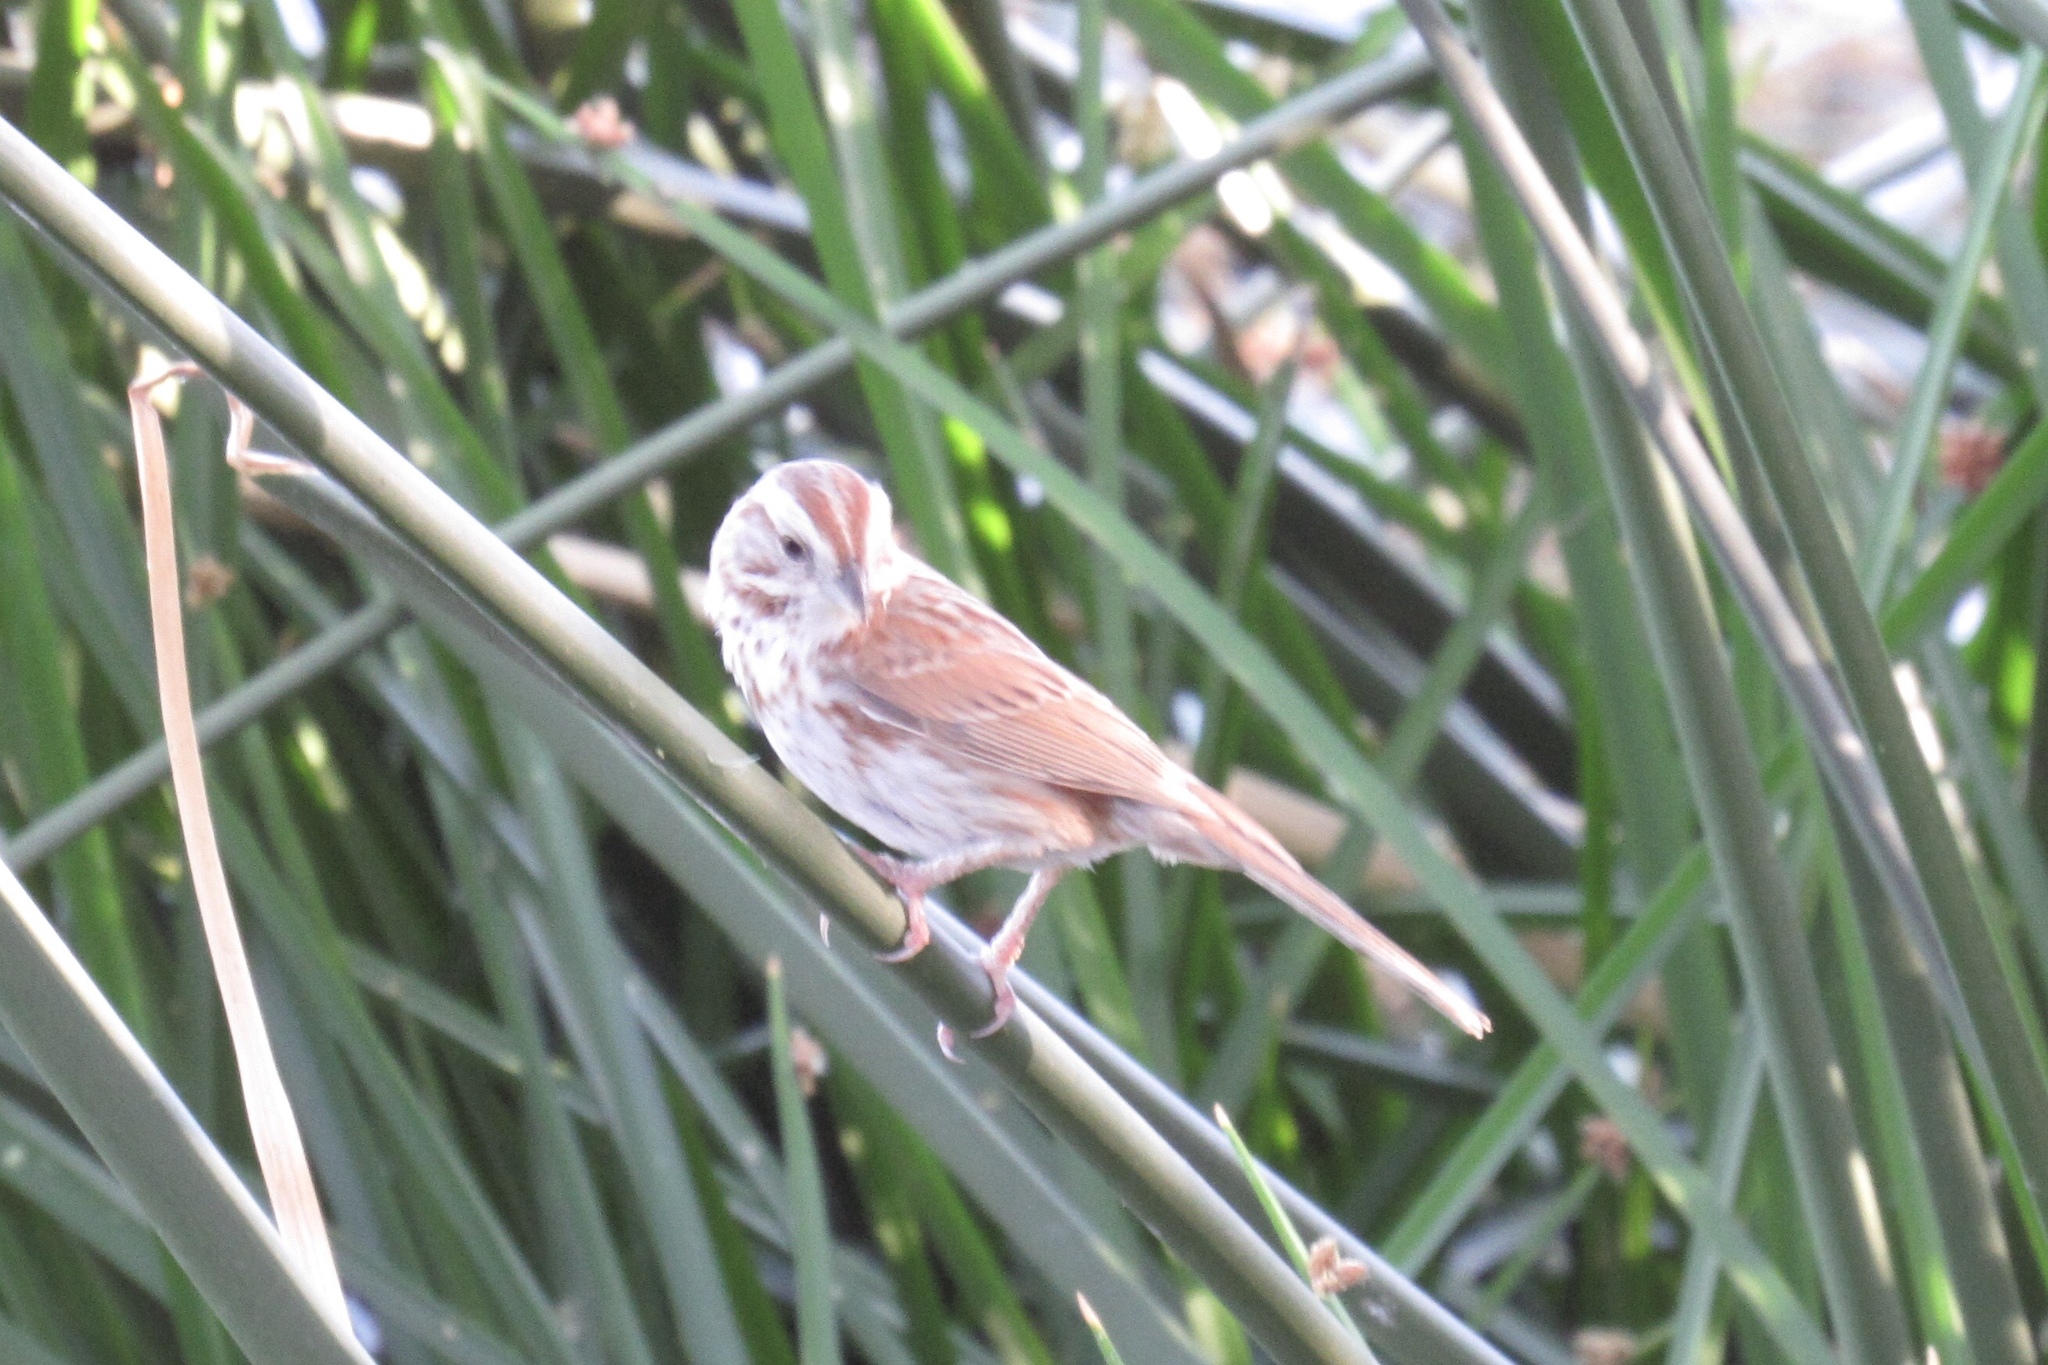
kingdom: Animalia
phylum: Chordata
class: Aves
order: Passeriformes
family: Passerellidae
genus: Melospiza
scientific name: Melospiza melodia
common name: Song sparrow
